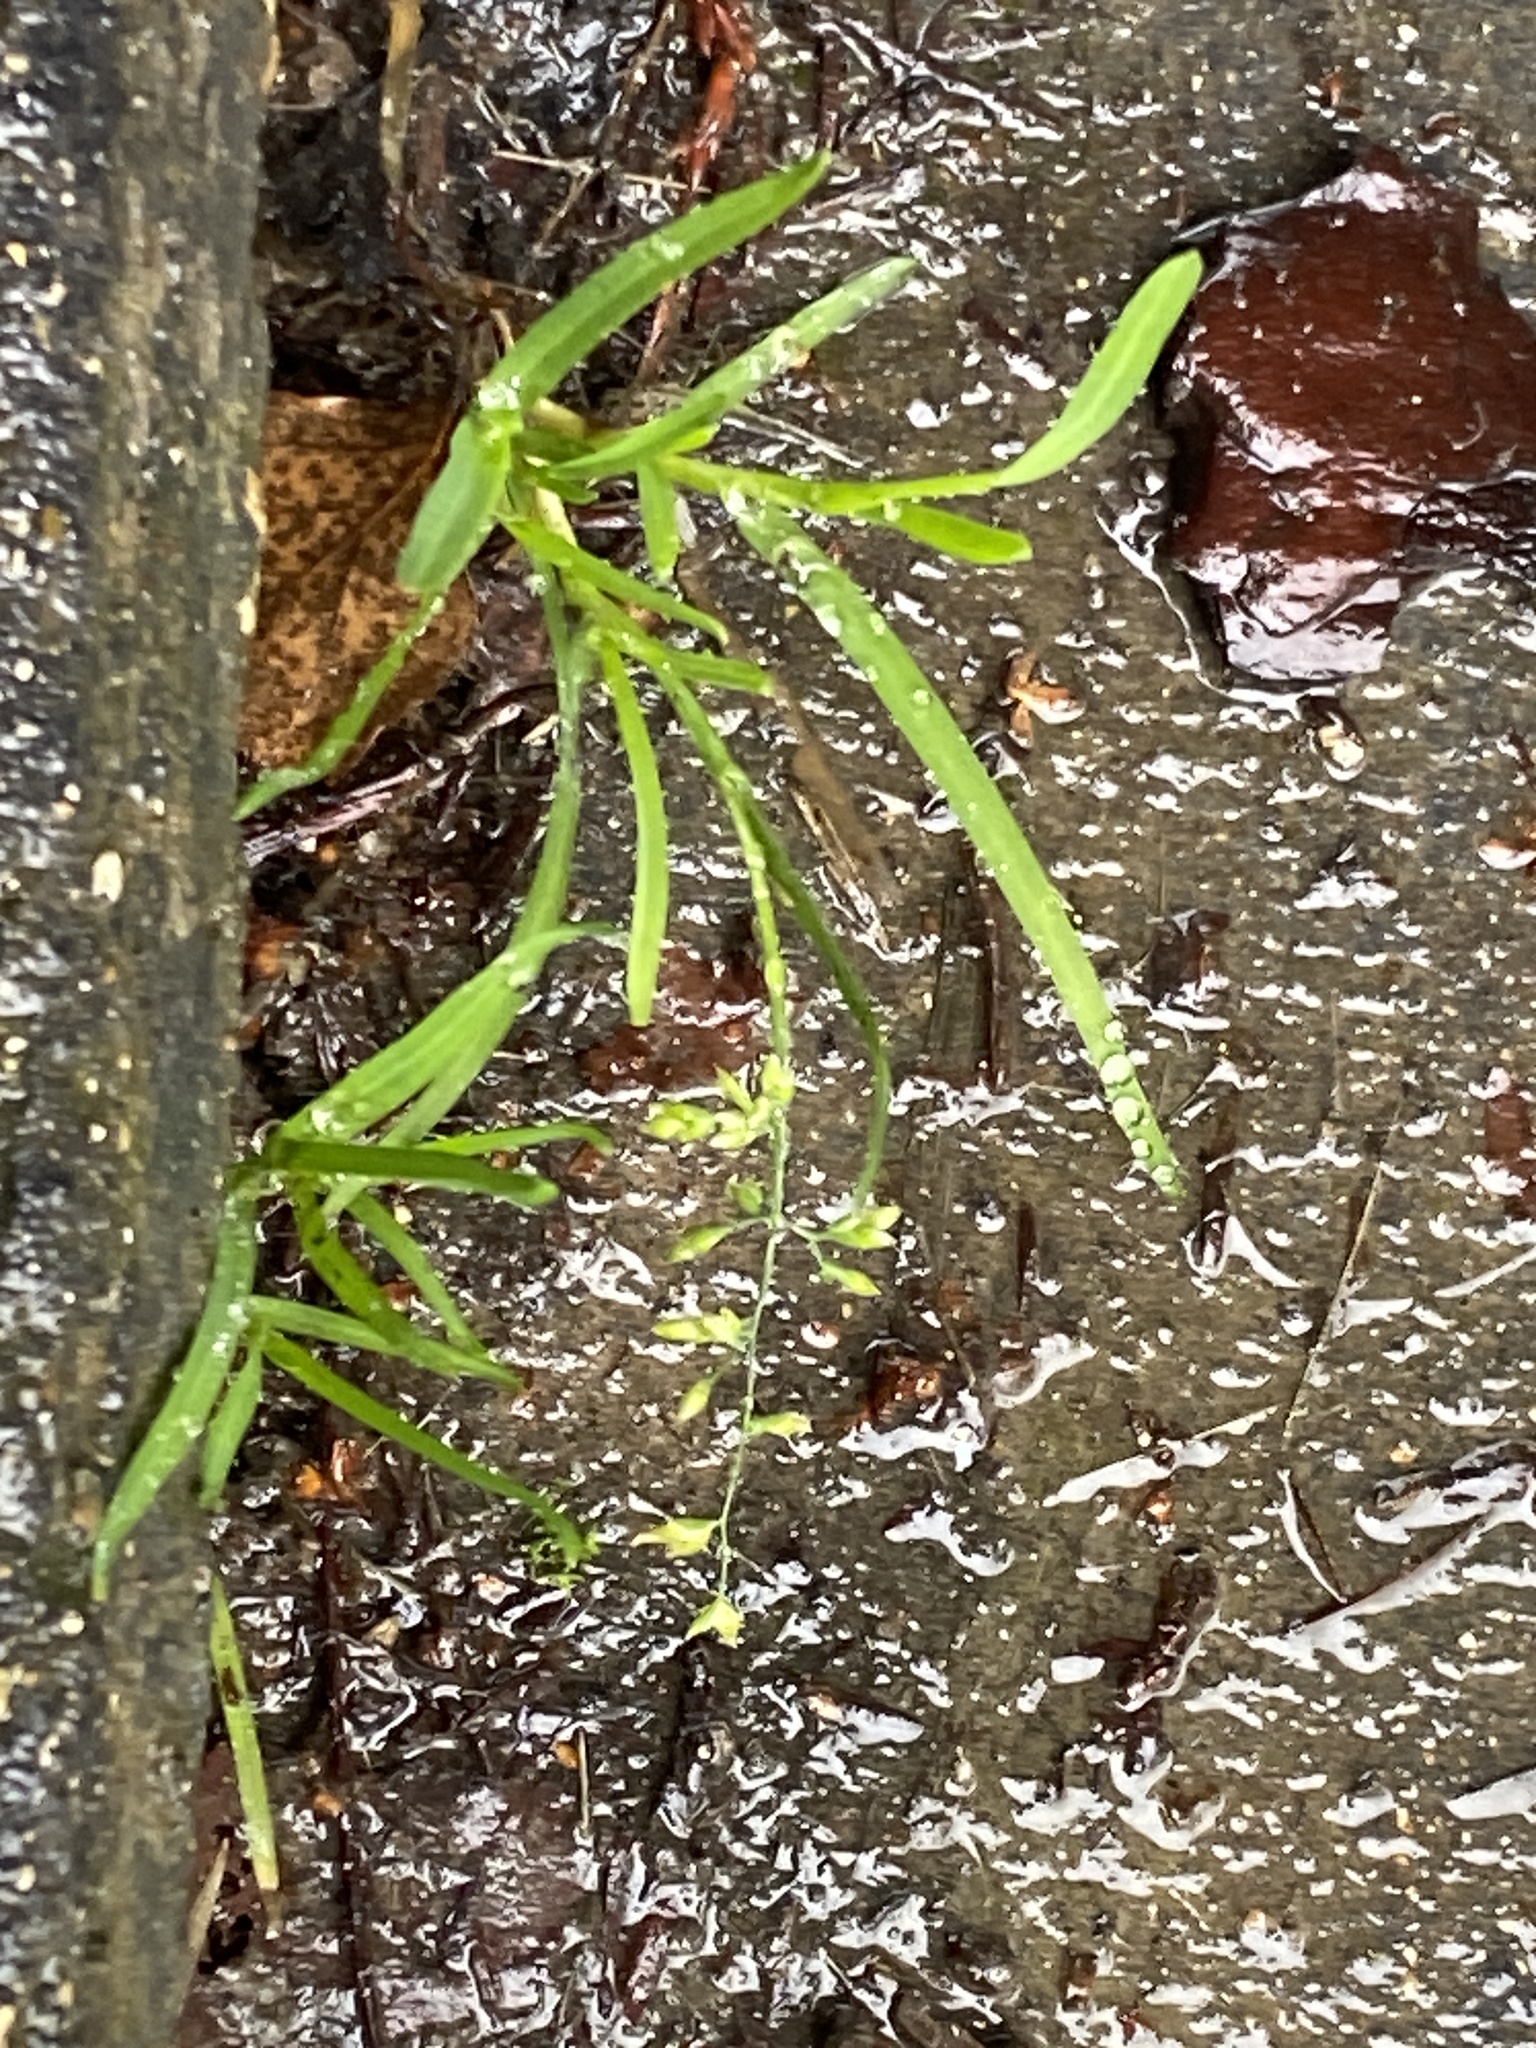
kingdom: Plantae
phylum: Tracheophyta
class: Liliopsida
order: Poales
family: Poaceae
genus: Poa
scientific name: Poa annua
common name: Annual bluegrass
